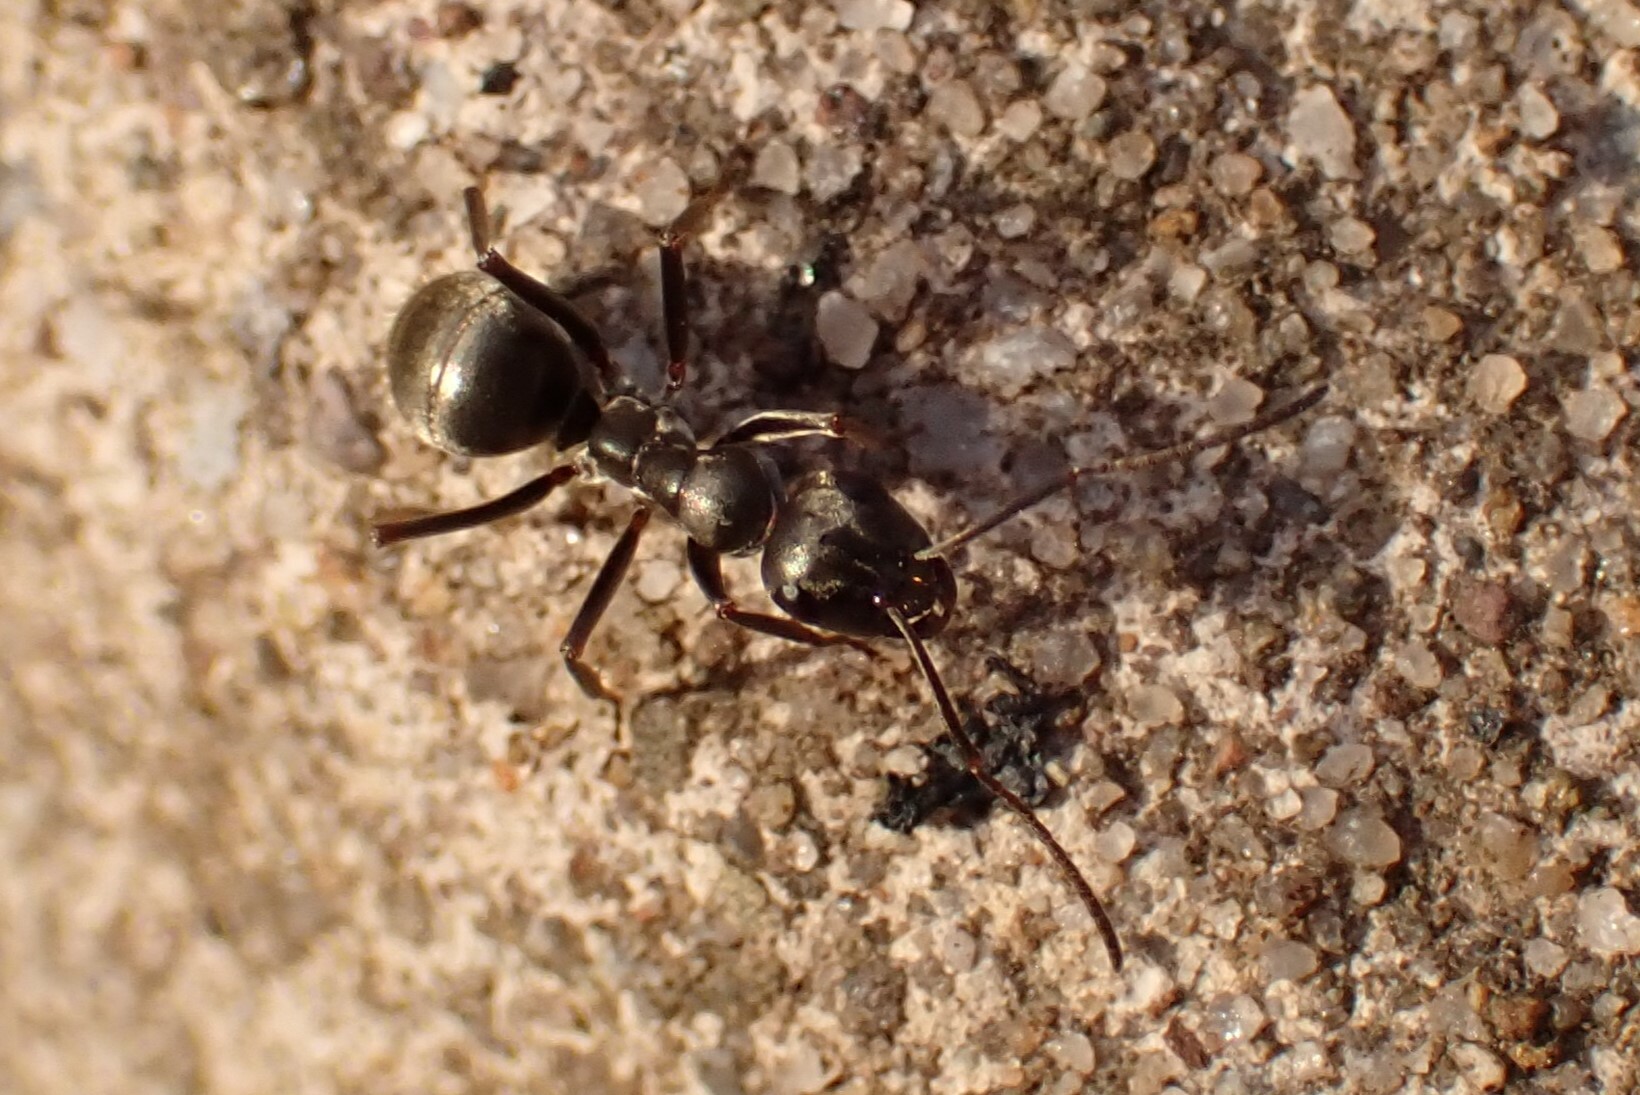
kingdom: Animalia
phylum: Arthropoda
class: Insecta
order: Hymenoptera
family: Formicidae
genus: Formica
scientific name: Formica
